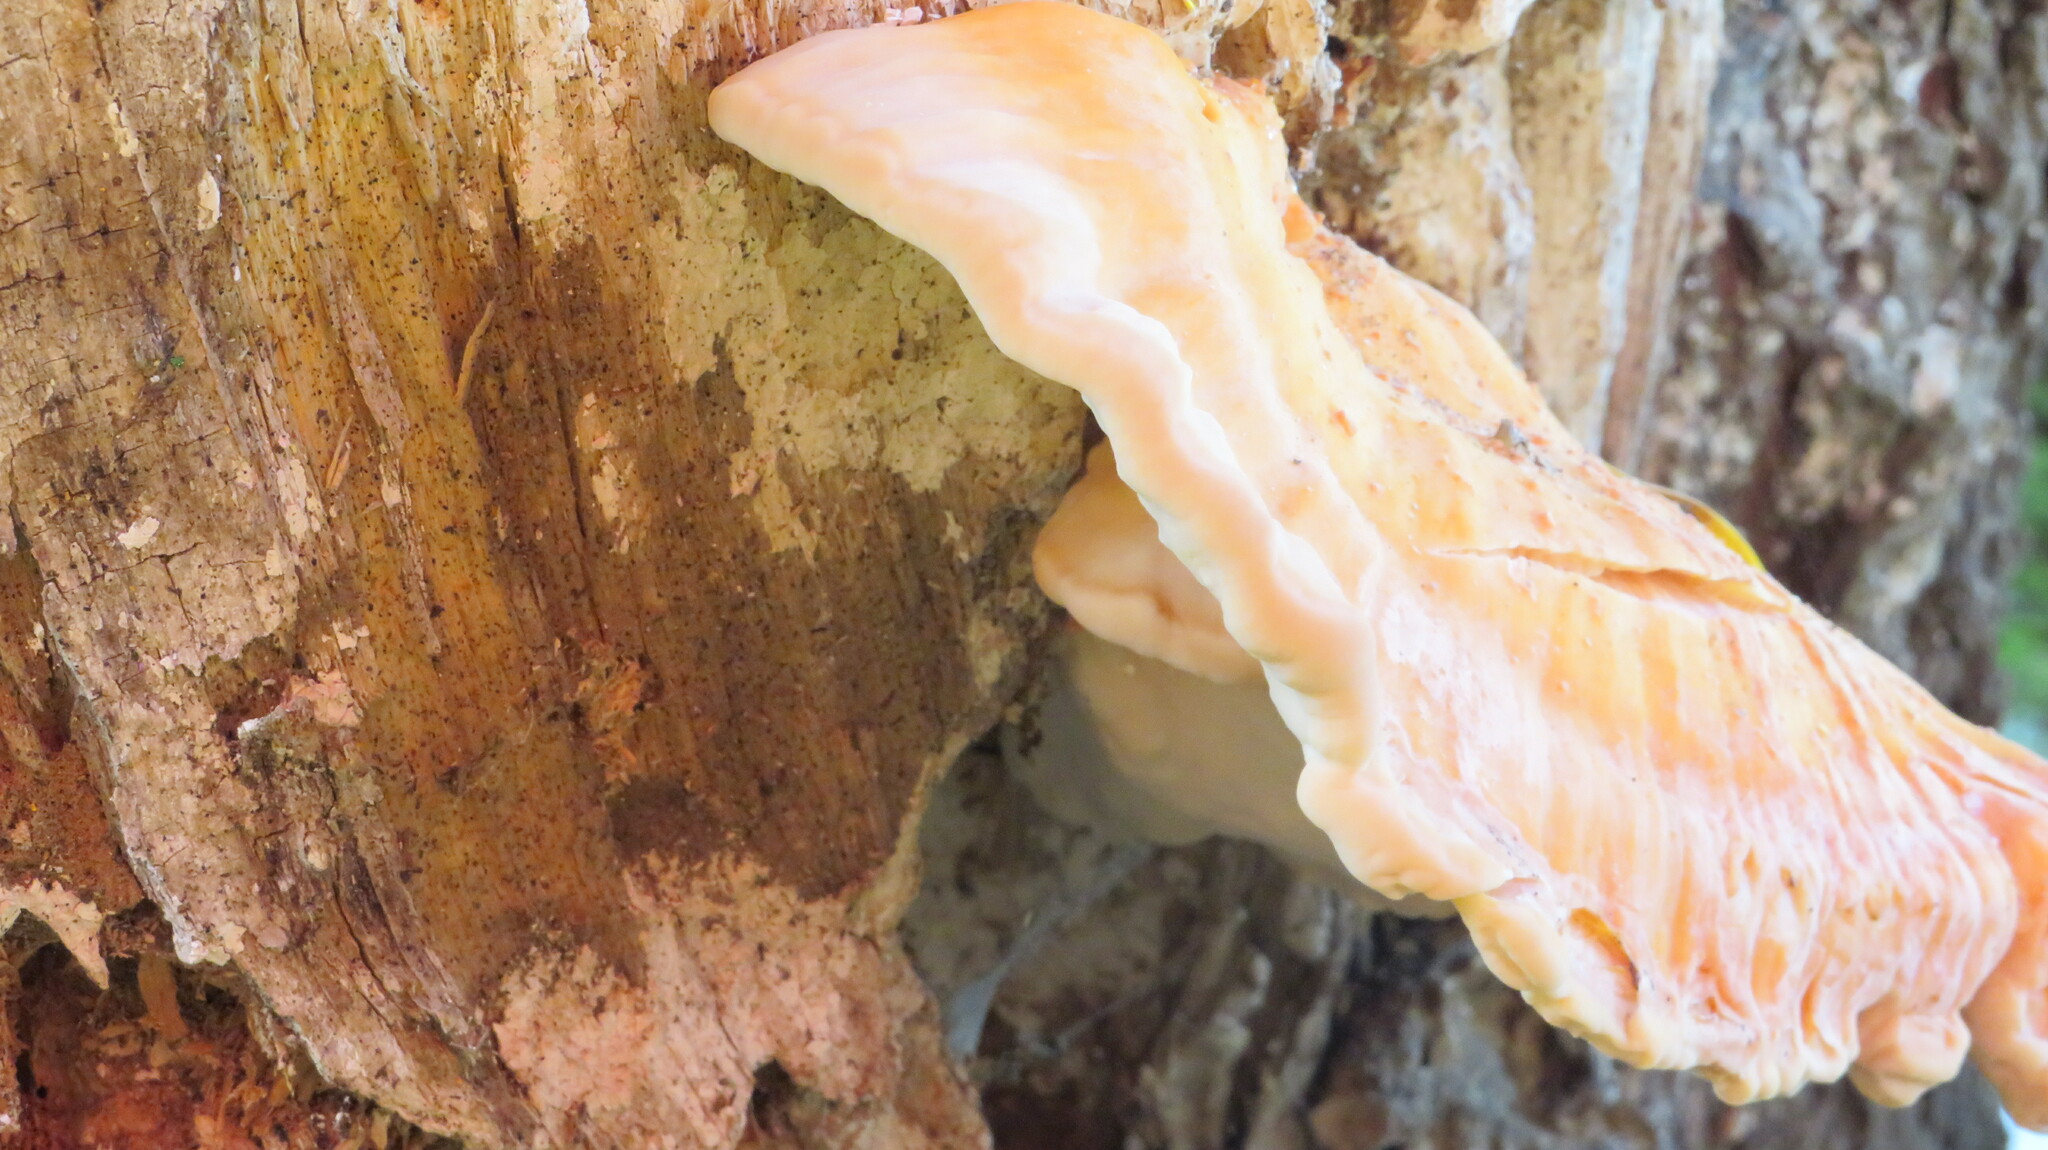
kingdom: Fungi
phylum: Basidiomycota
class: Agaricomycetes
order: Polyporales
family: Laetiporaceae
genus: Laetiporus
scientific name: Laetiporus sulphureus
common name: Chicken of the woods
